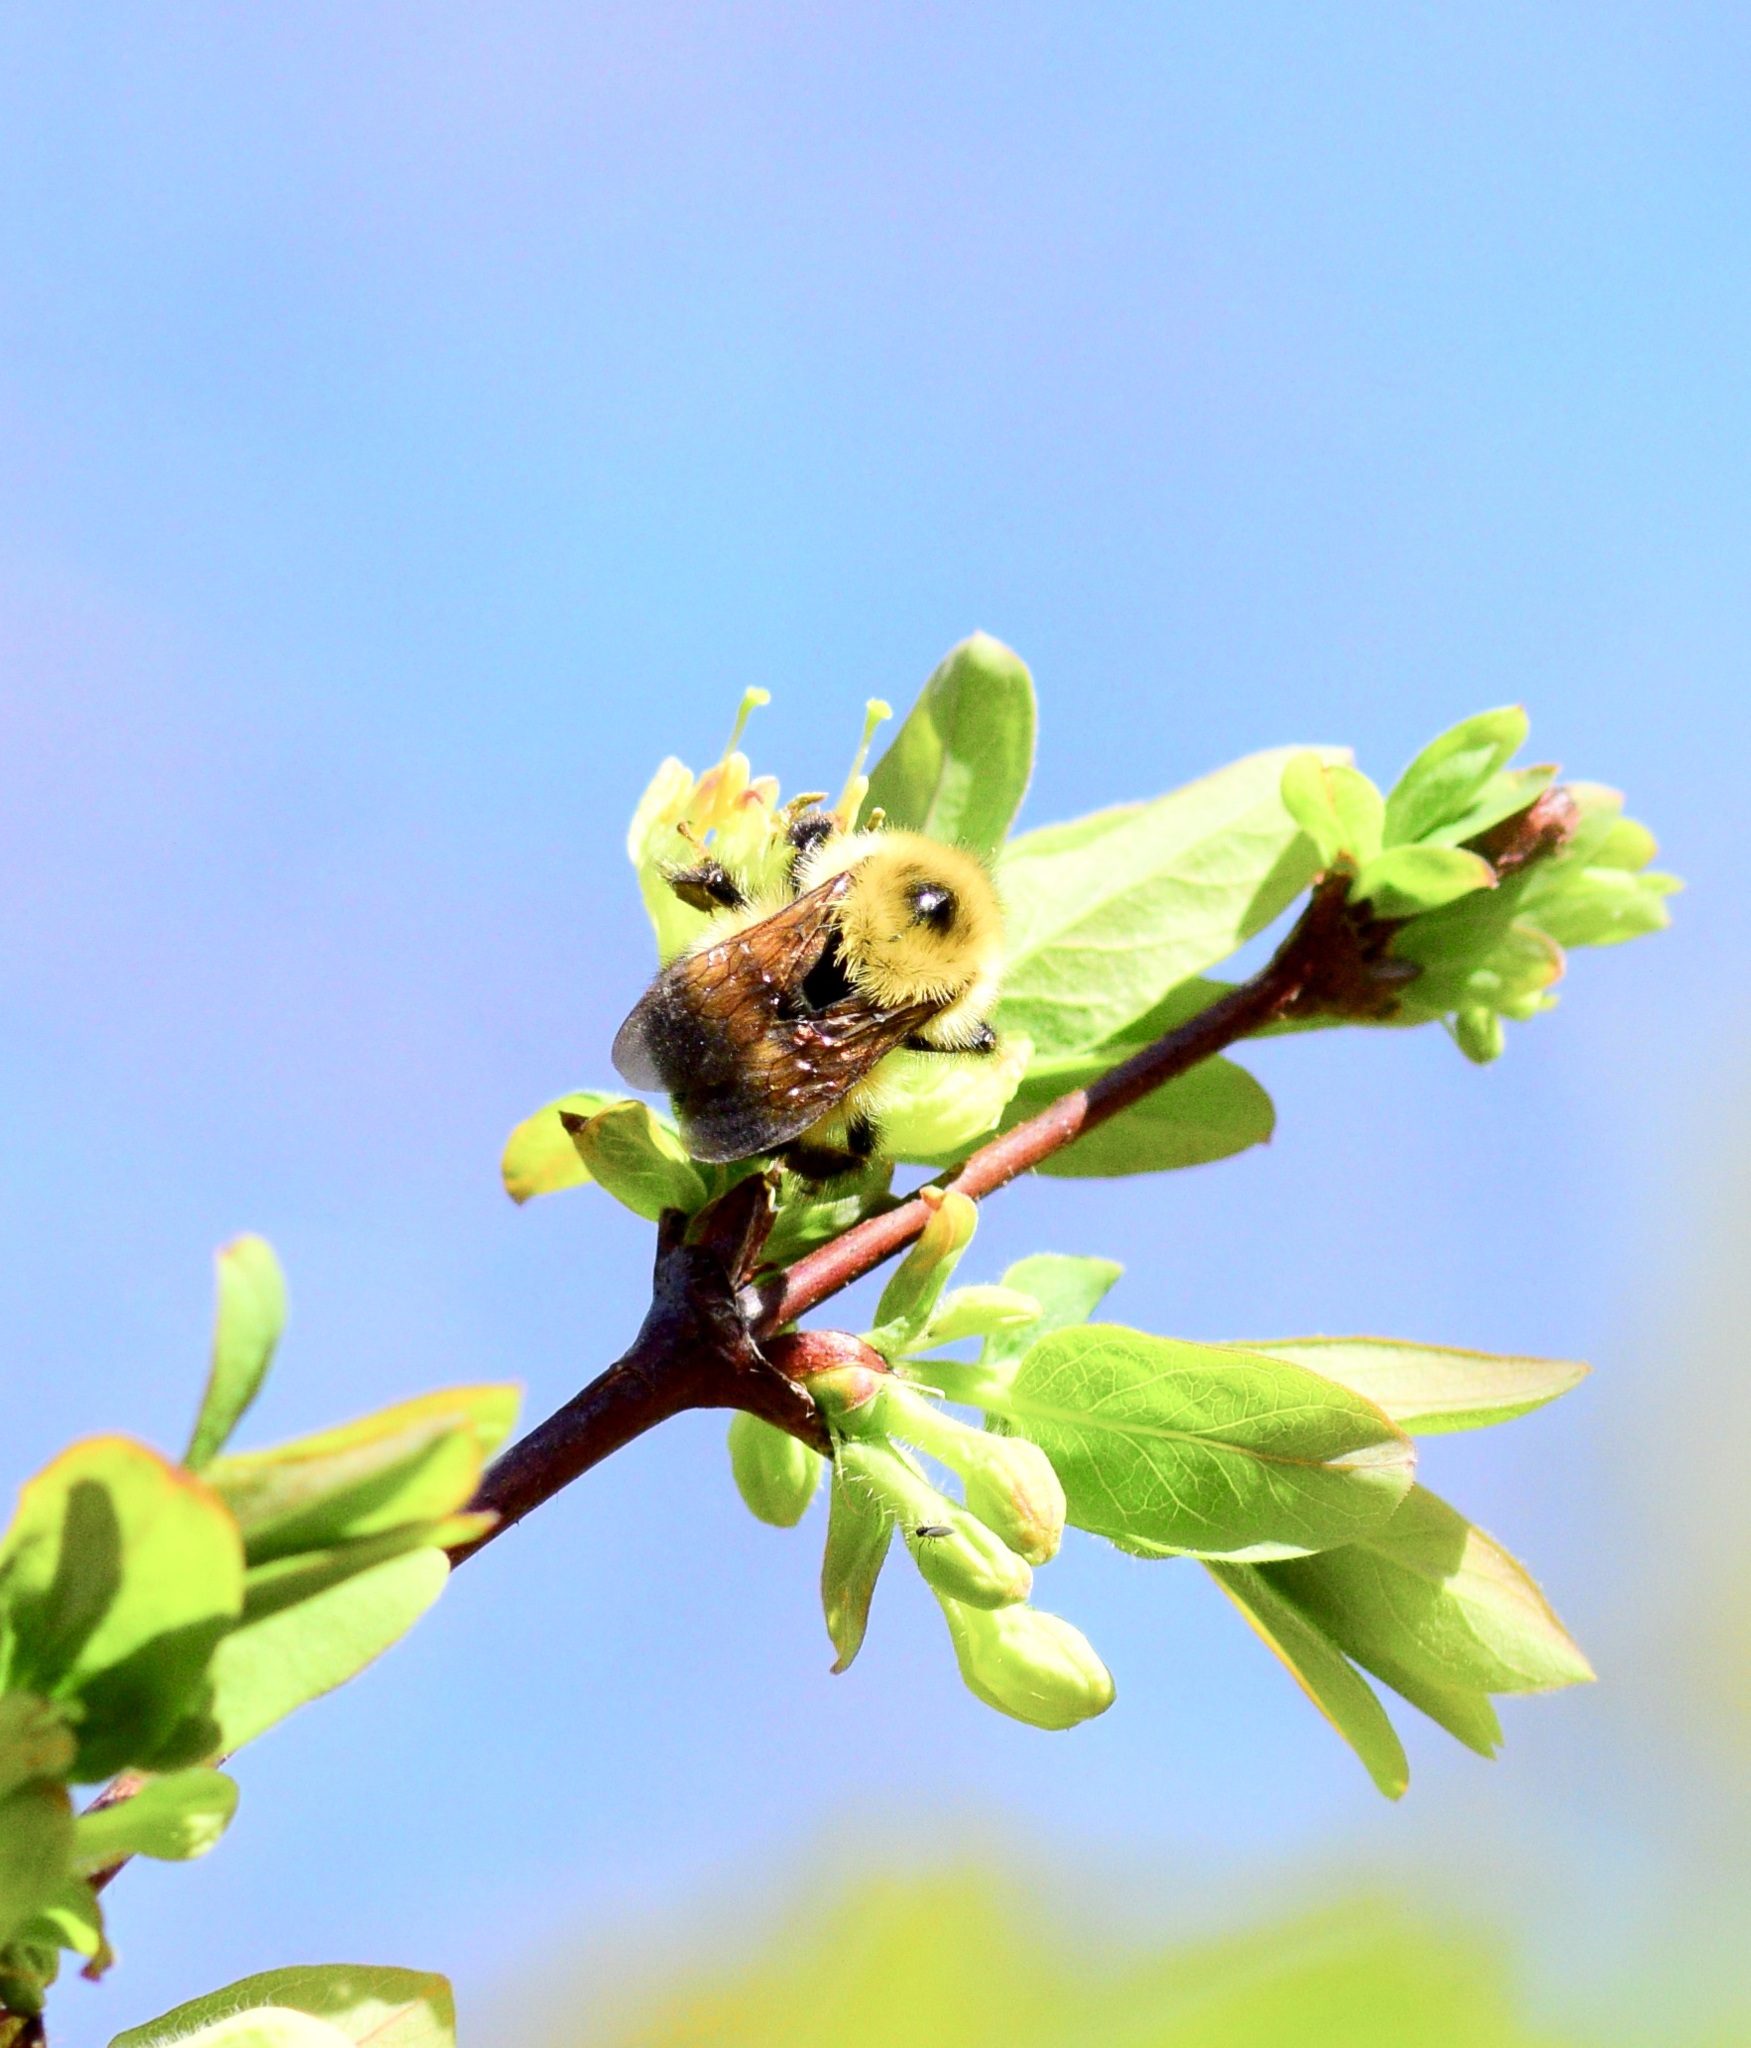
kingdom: Animalia
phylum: Arthropoda
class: Insecta
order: Hymenoptera
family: Apidae
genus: Pyrobombus
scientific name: Pyrobombus
